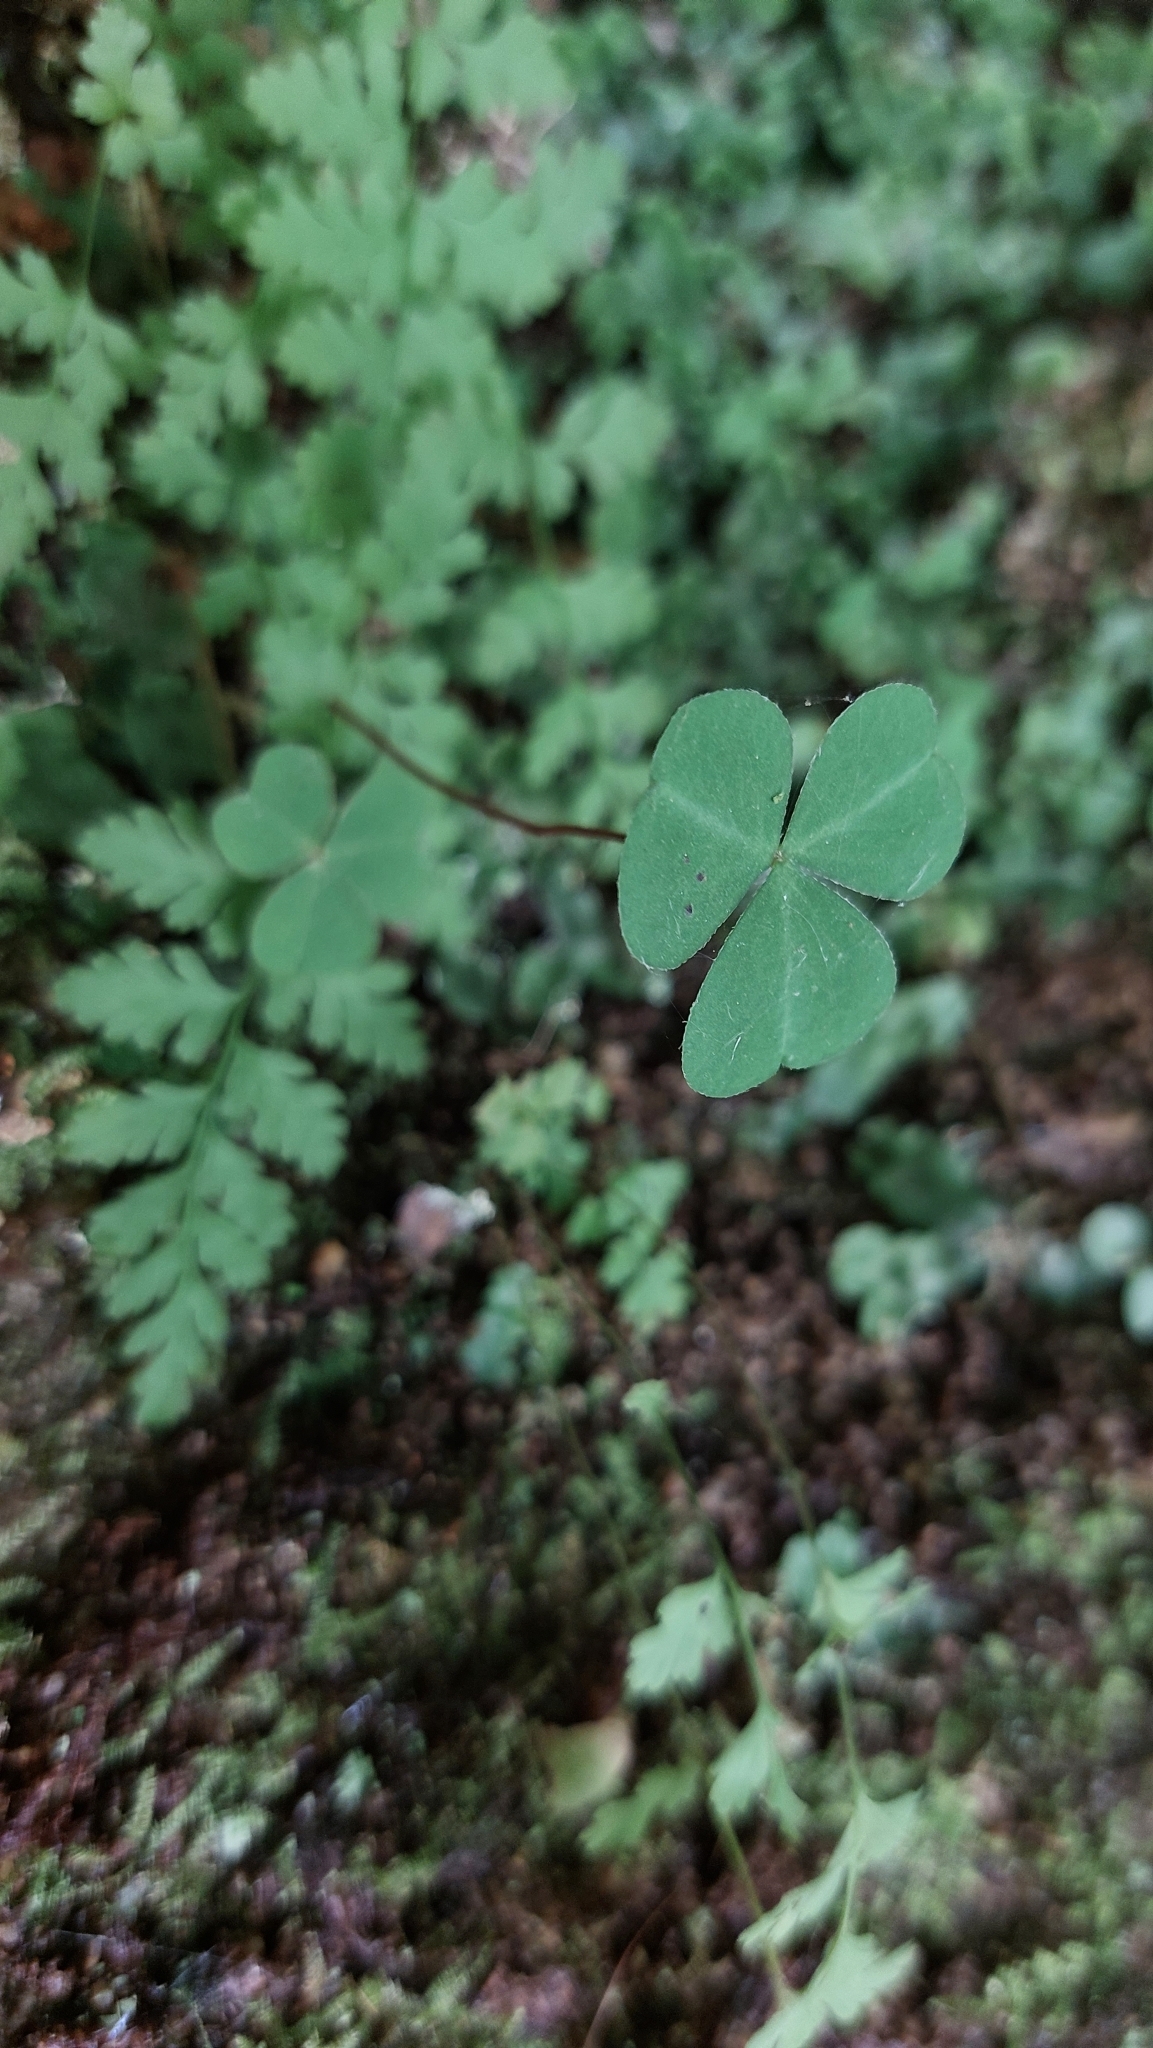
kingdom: Plantae
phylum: Tracheophyta
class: Magnoliopsida
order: Oxalidales
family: Oxalidaceae
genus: Oxalis
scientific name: Oxalis acetosella
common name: Wood-sorrel
